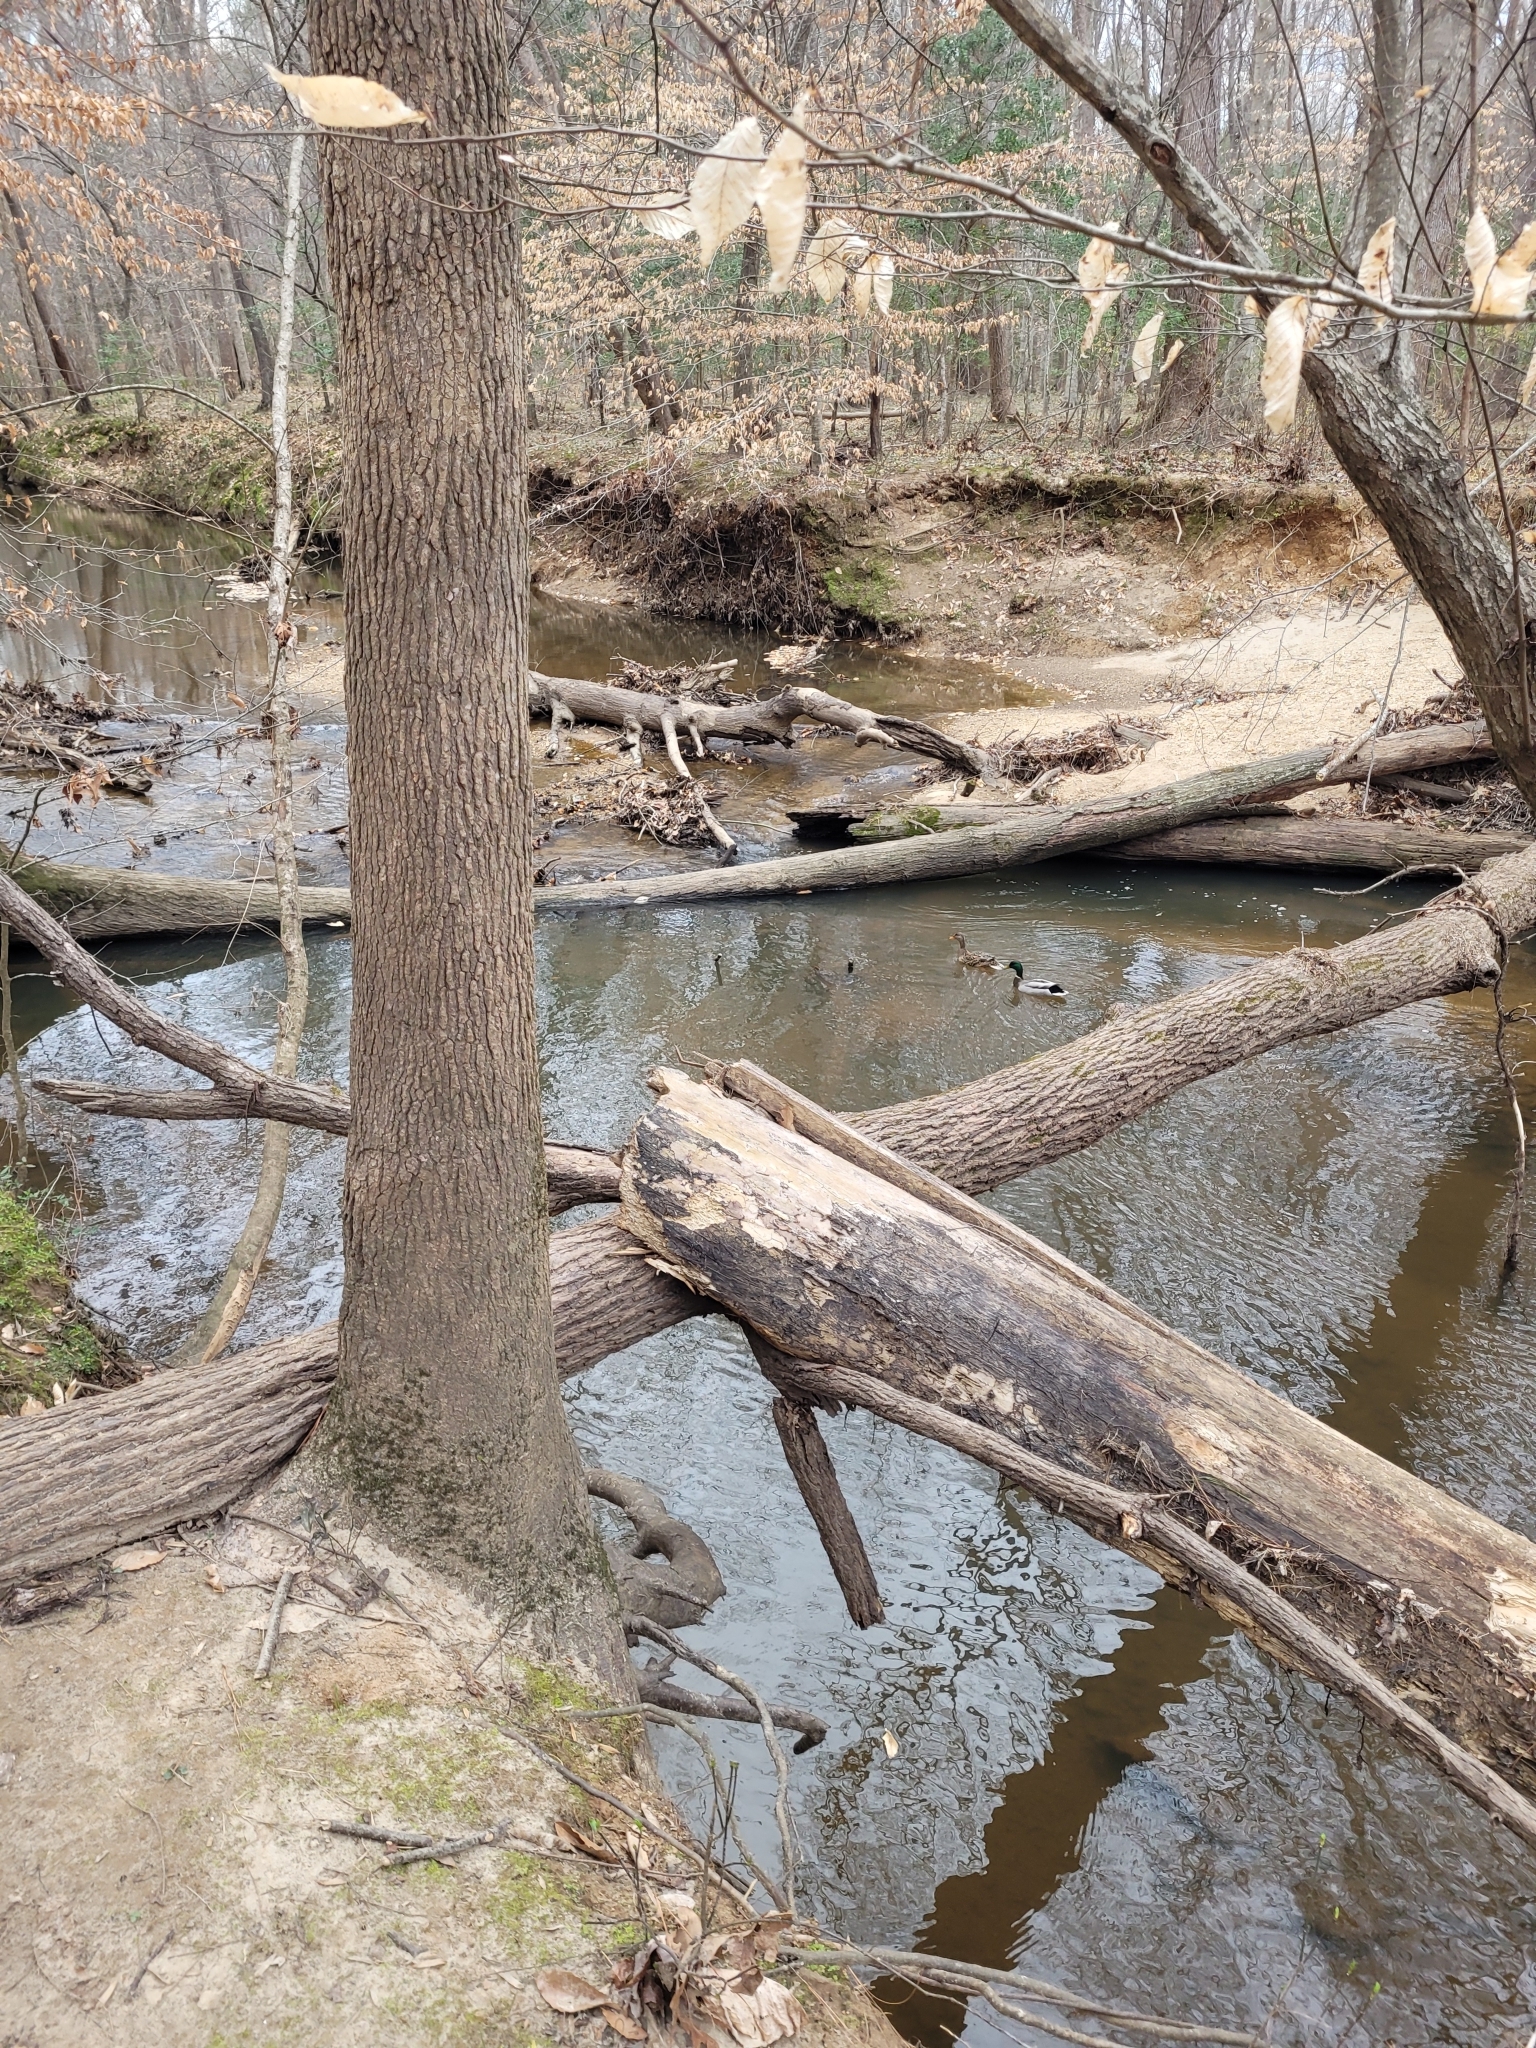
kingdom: Animalia
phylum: Chordata
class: Aves
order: Anseriformes
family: Anatidae
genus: Anas
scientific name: Anas platyrhynchos
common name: Mallard
